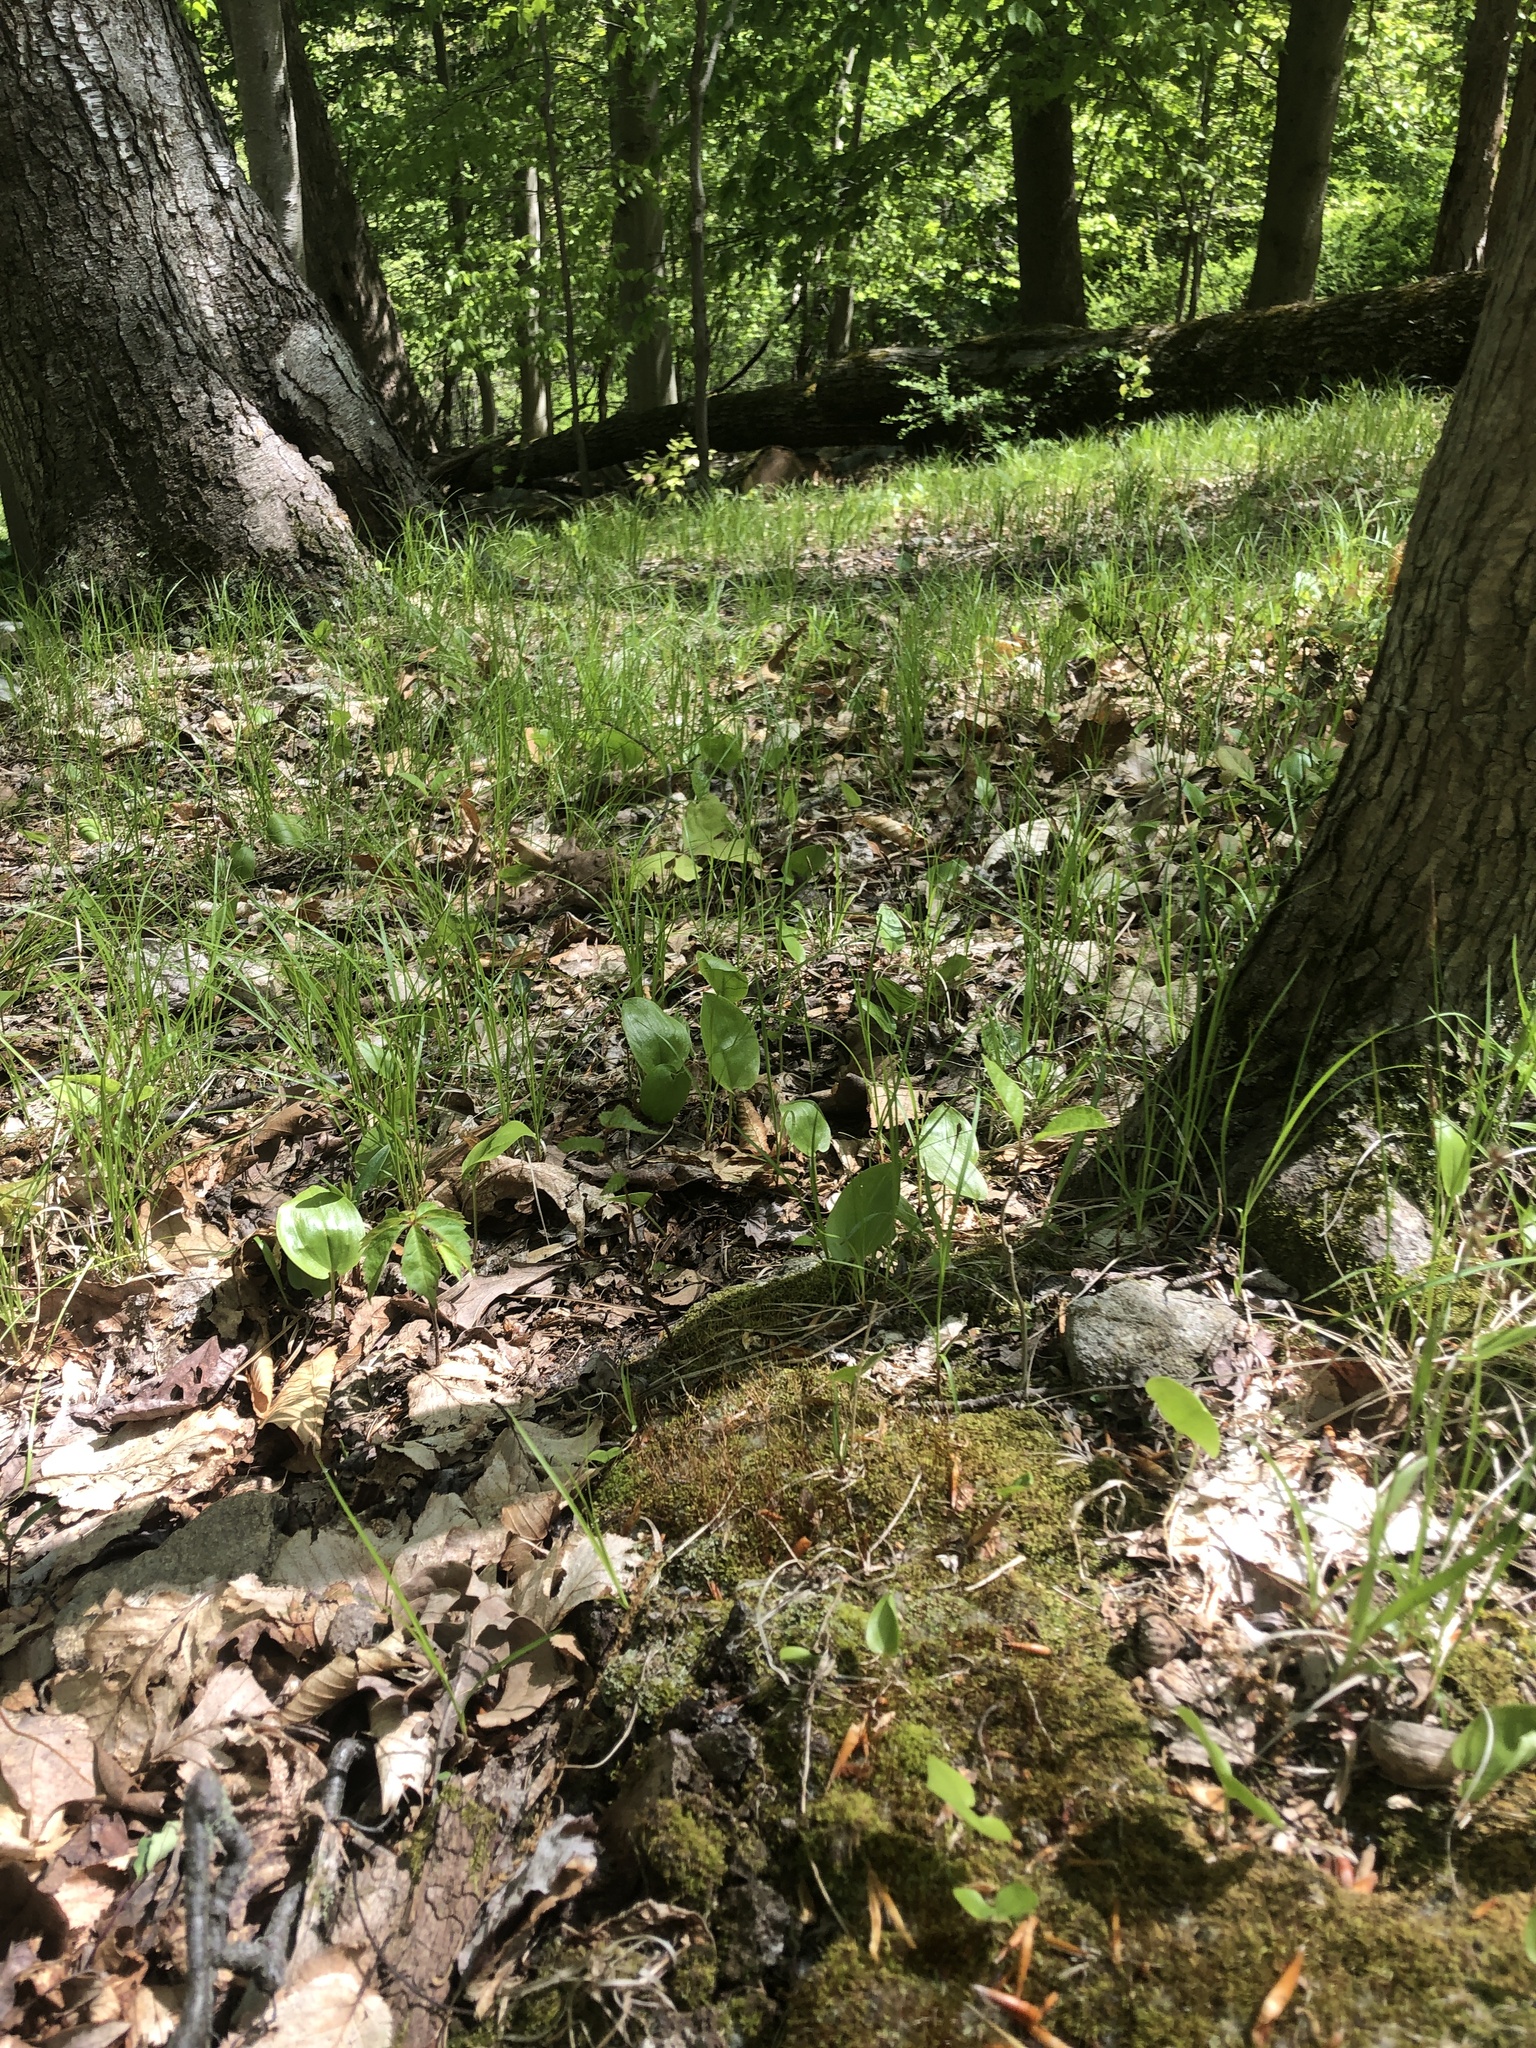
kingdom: Plantae
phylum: Tracheophyta
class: Liliopsida
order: Asparagales
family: Asparagaceae
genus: Maianthemum
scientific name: Maianthemum canadense
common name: False lily-of-the-valley
